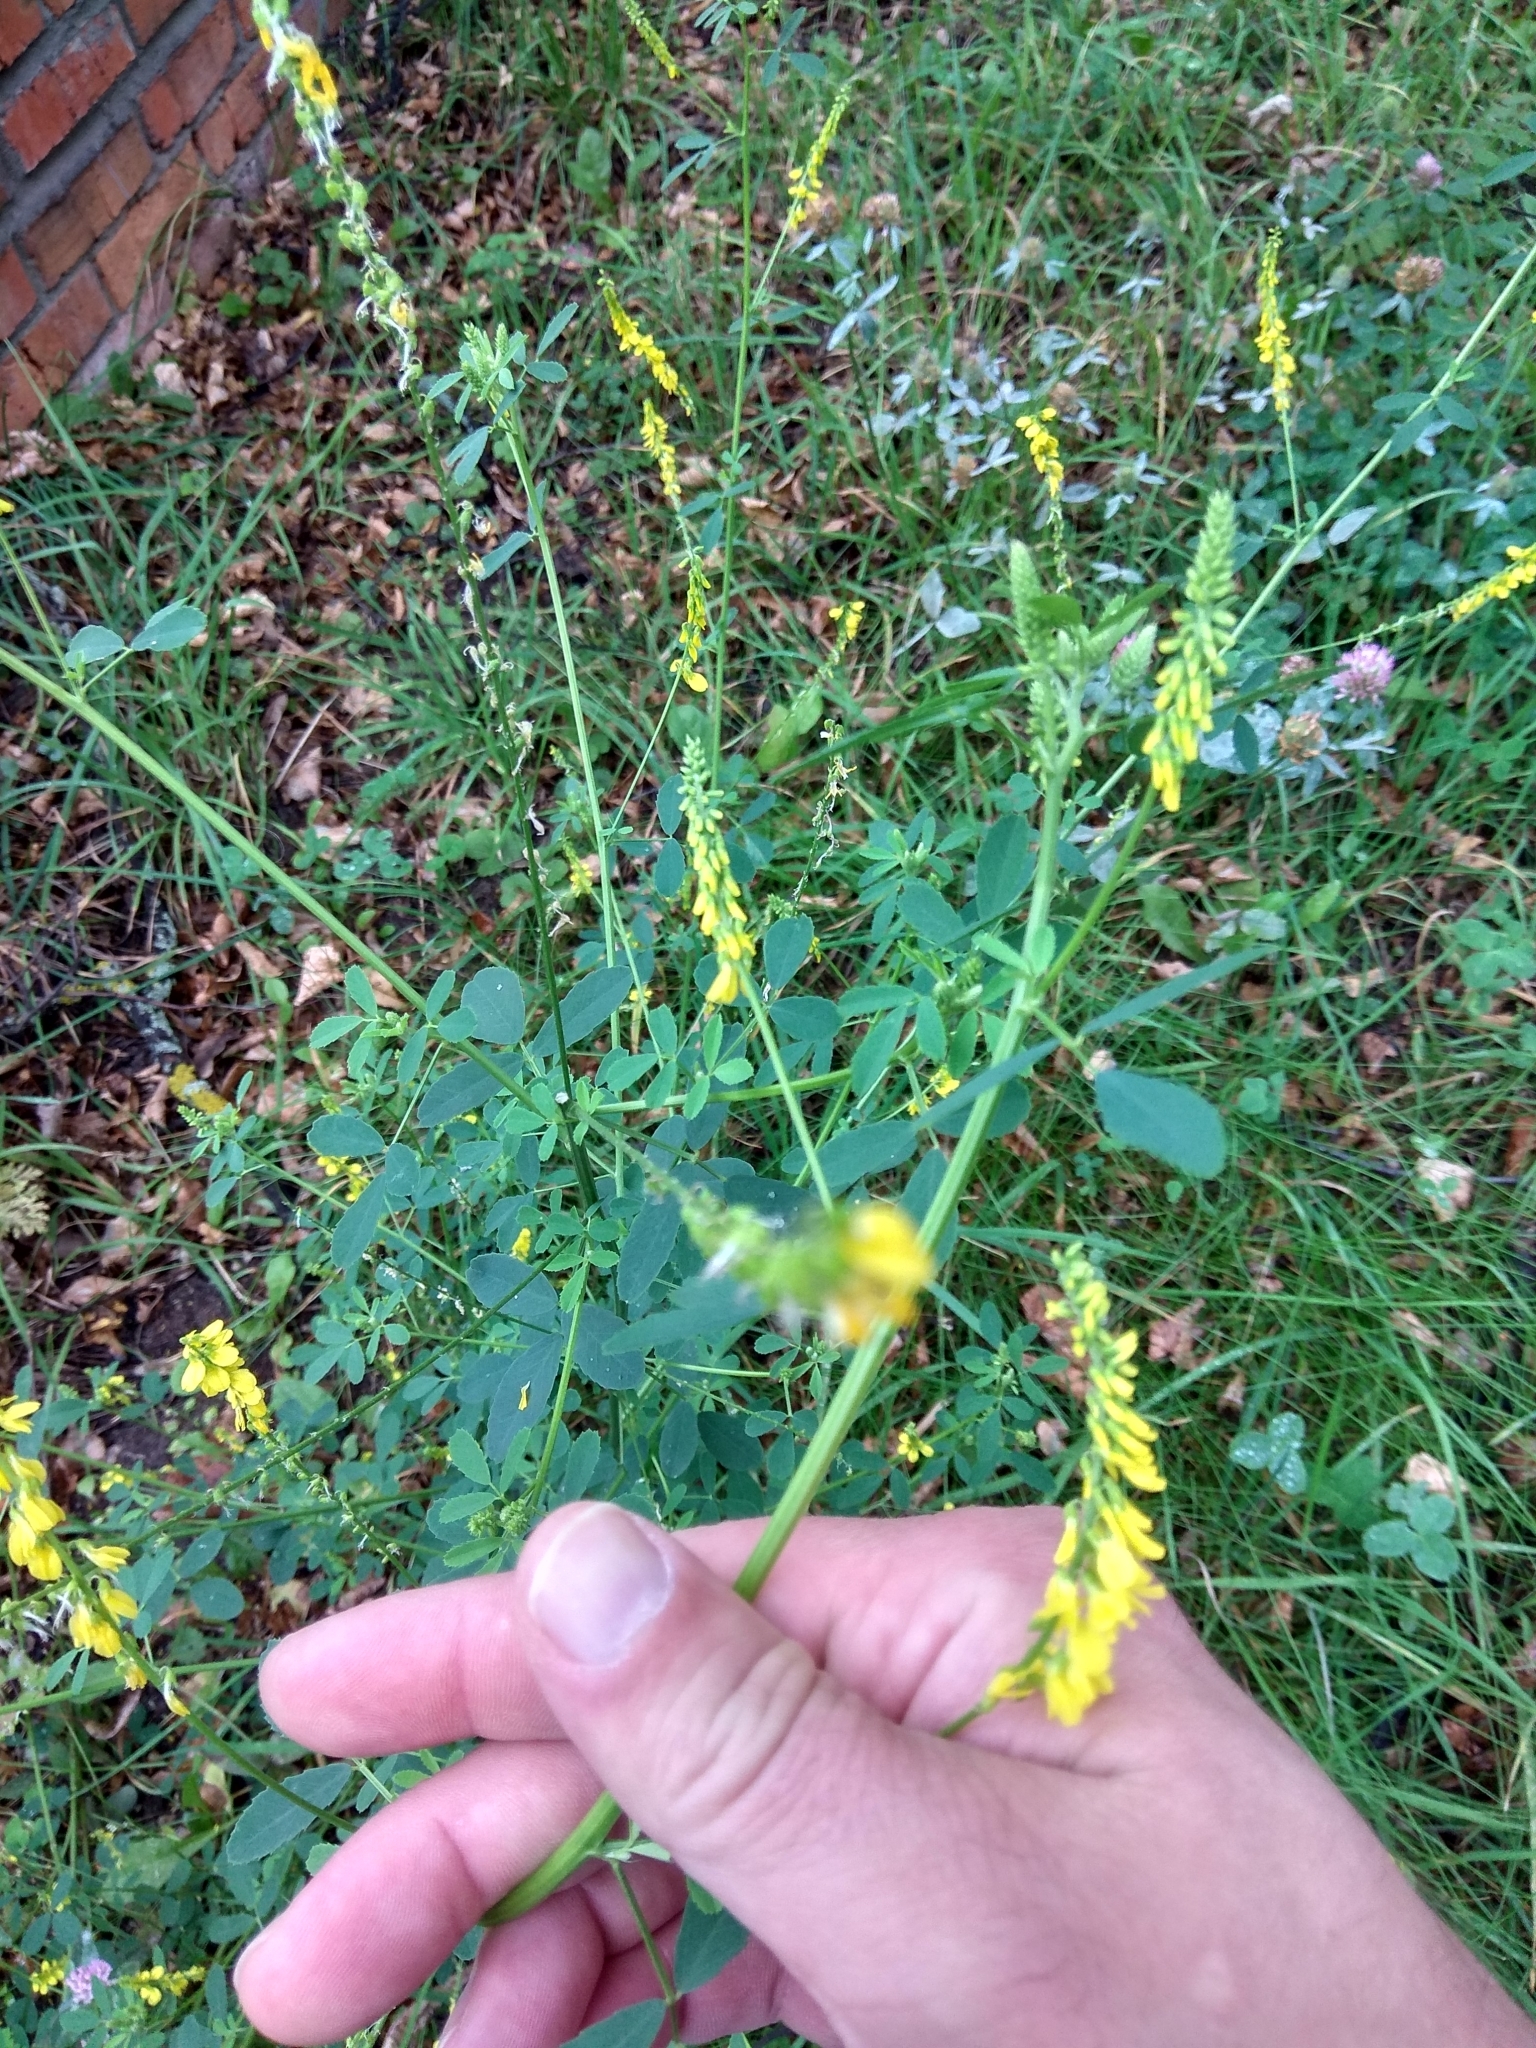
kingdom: Plantae
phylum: Tracheophyta
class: Magnoliopsida
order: Fabales
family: Fabaceae
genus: Melilotus
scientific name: Melilotus officinalis
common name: Sweetclover
